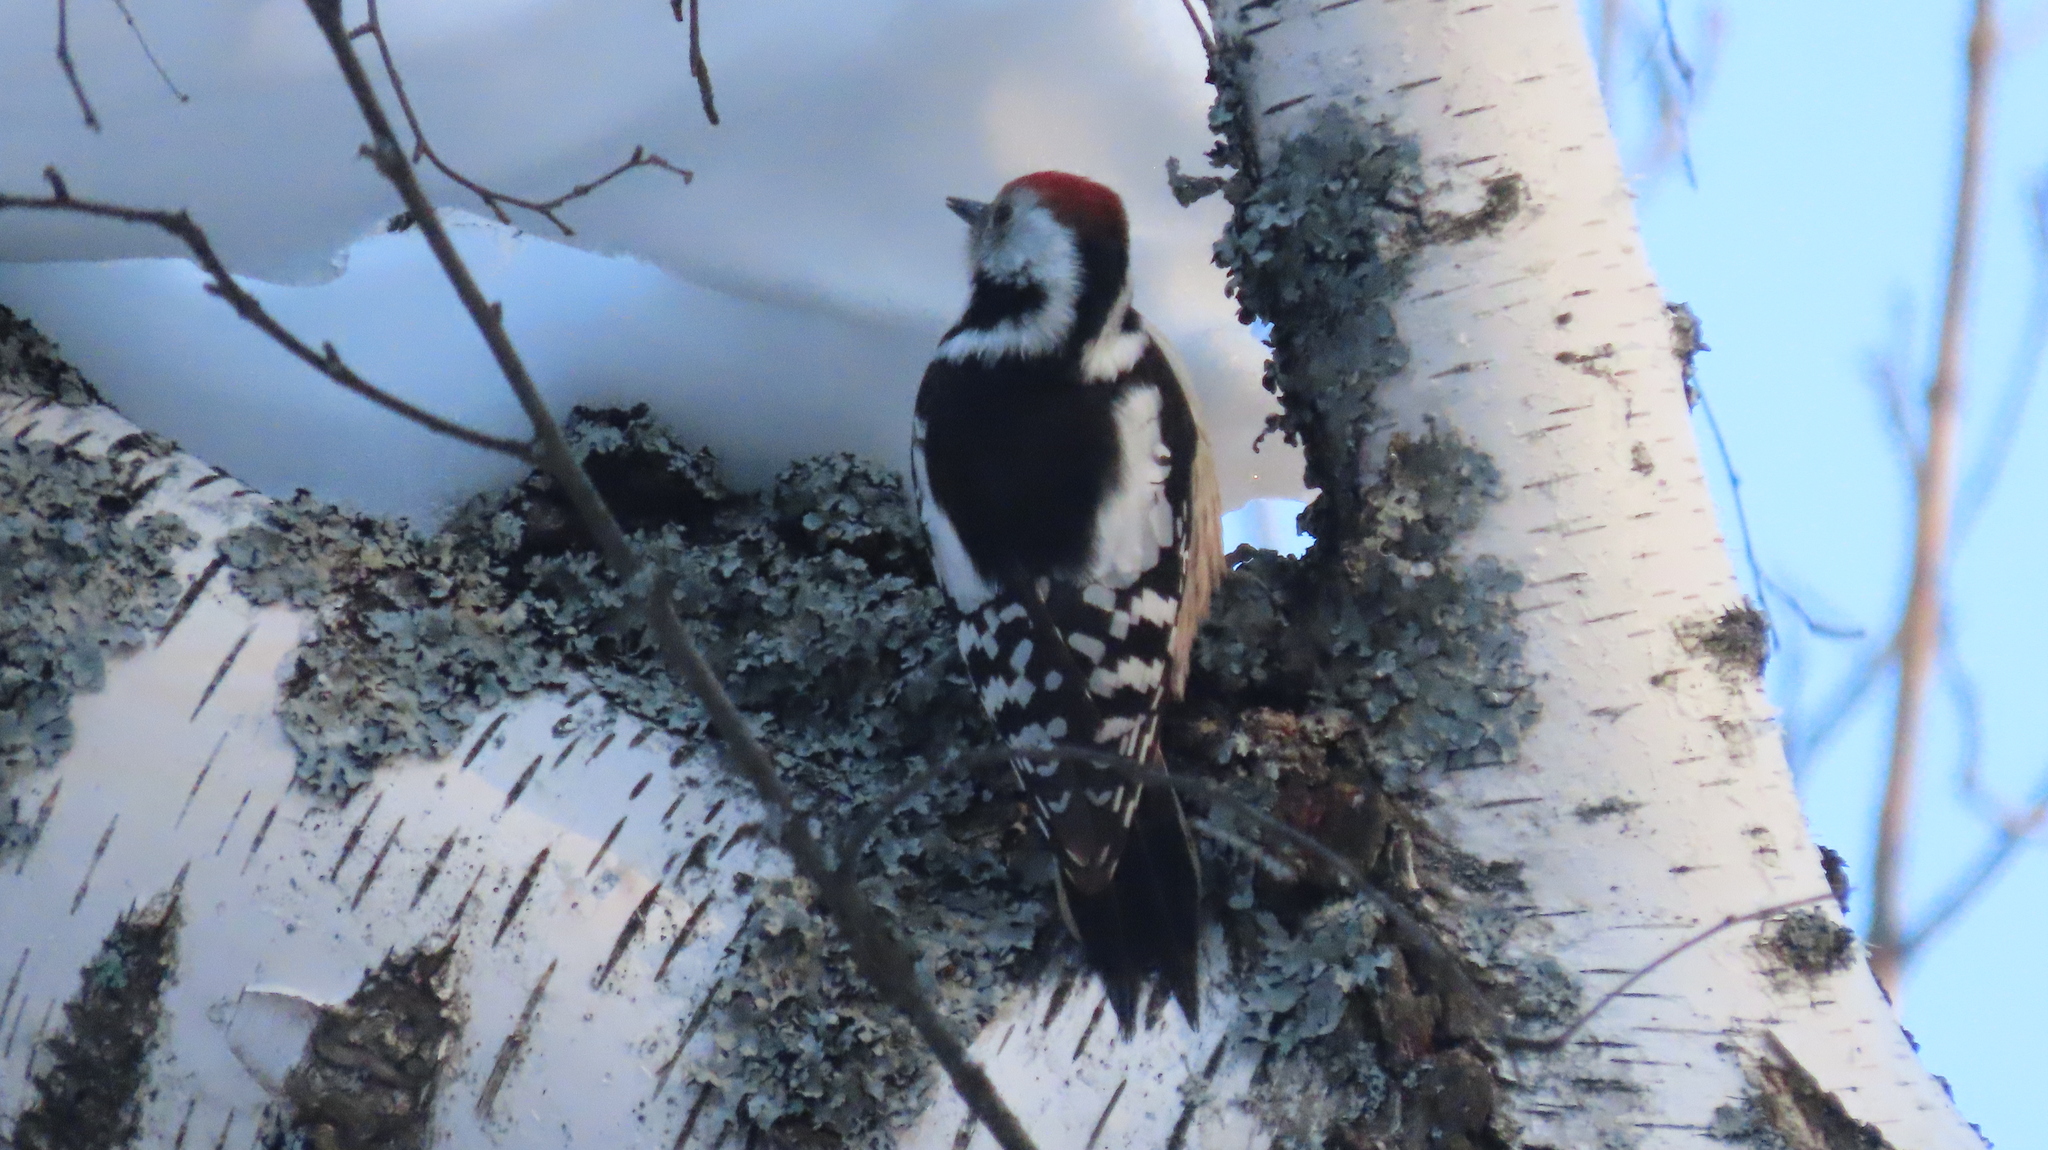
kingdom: Animalia
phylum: Chordata
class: Aves
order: Piciformes
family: Picidae
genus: Dendrocoptes
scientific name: Dendrocoptes medius
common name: Middle spotted woodpecker
